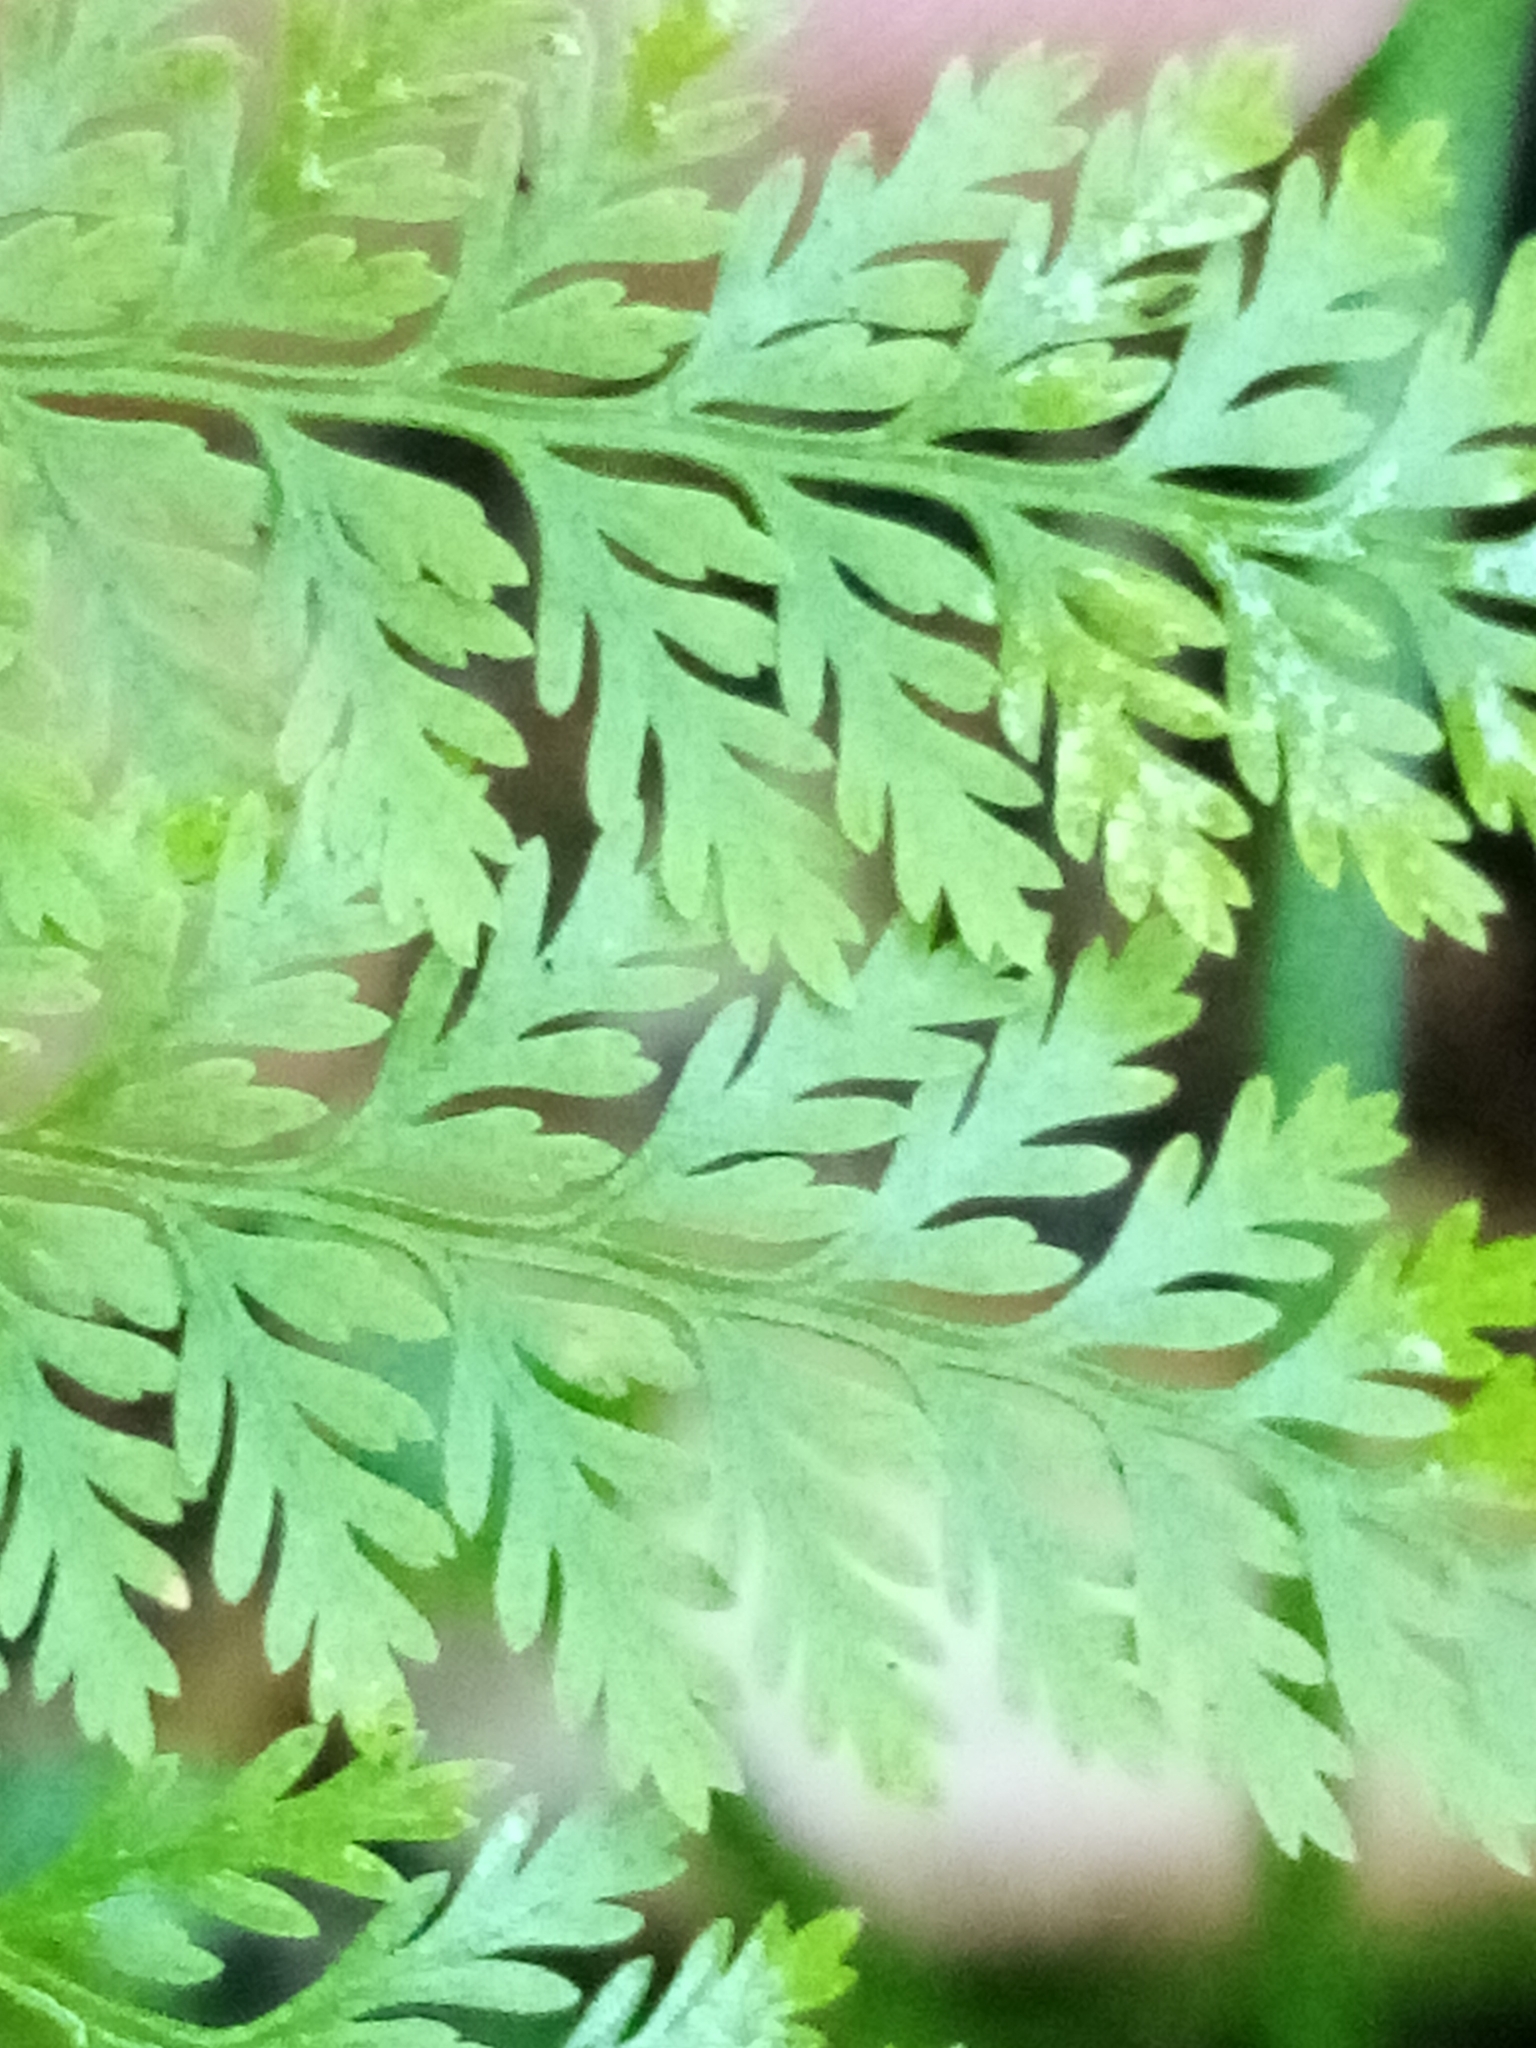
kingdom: Plantae
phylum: Tracheophyta
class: Polypodiopsida
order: Polypodiales
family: Dennstaedtiaceae
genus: Paesia
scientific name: Paesia scaberula
